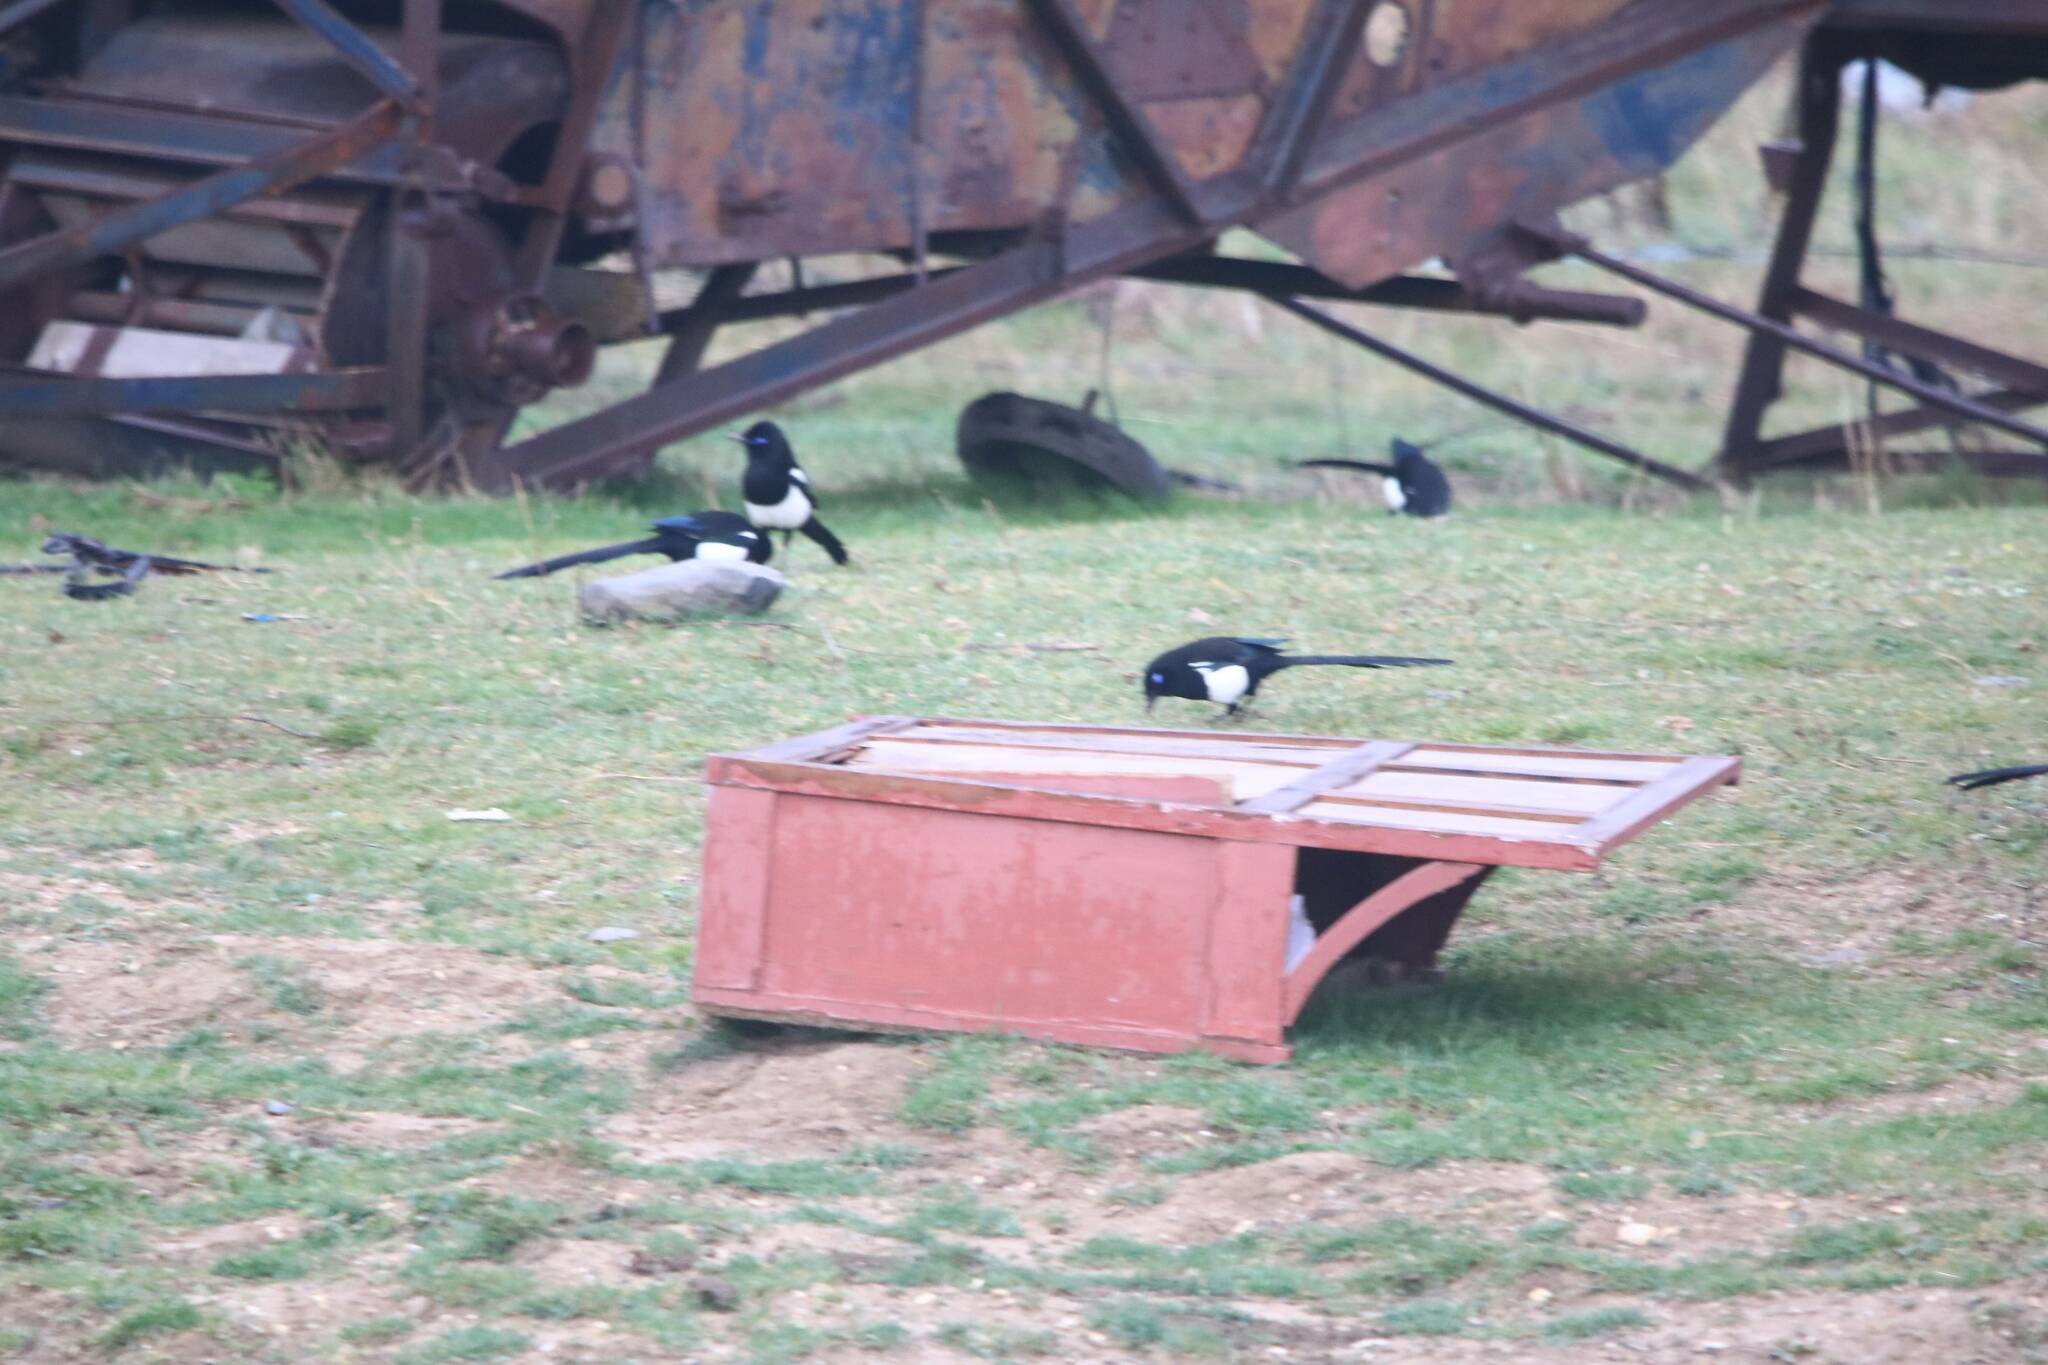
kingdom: Animalia
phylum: Chordata
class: Aves
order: Passeriformes
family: Corvidae
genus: Pica
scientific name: Pica mauritanica
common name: Maghreb magpie
